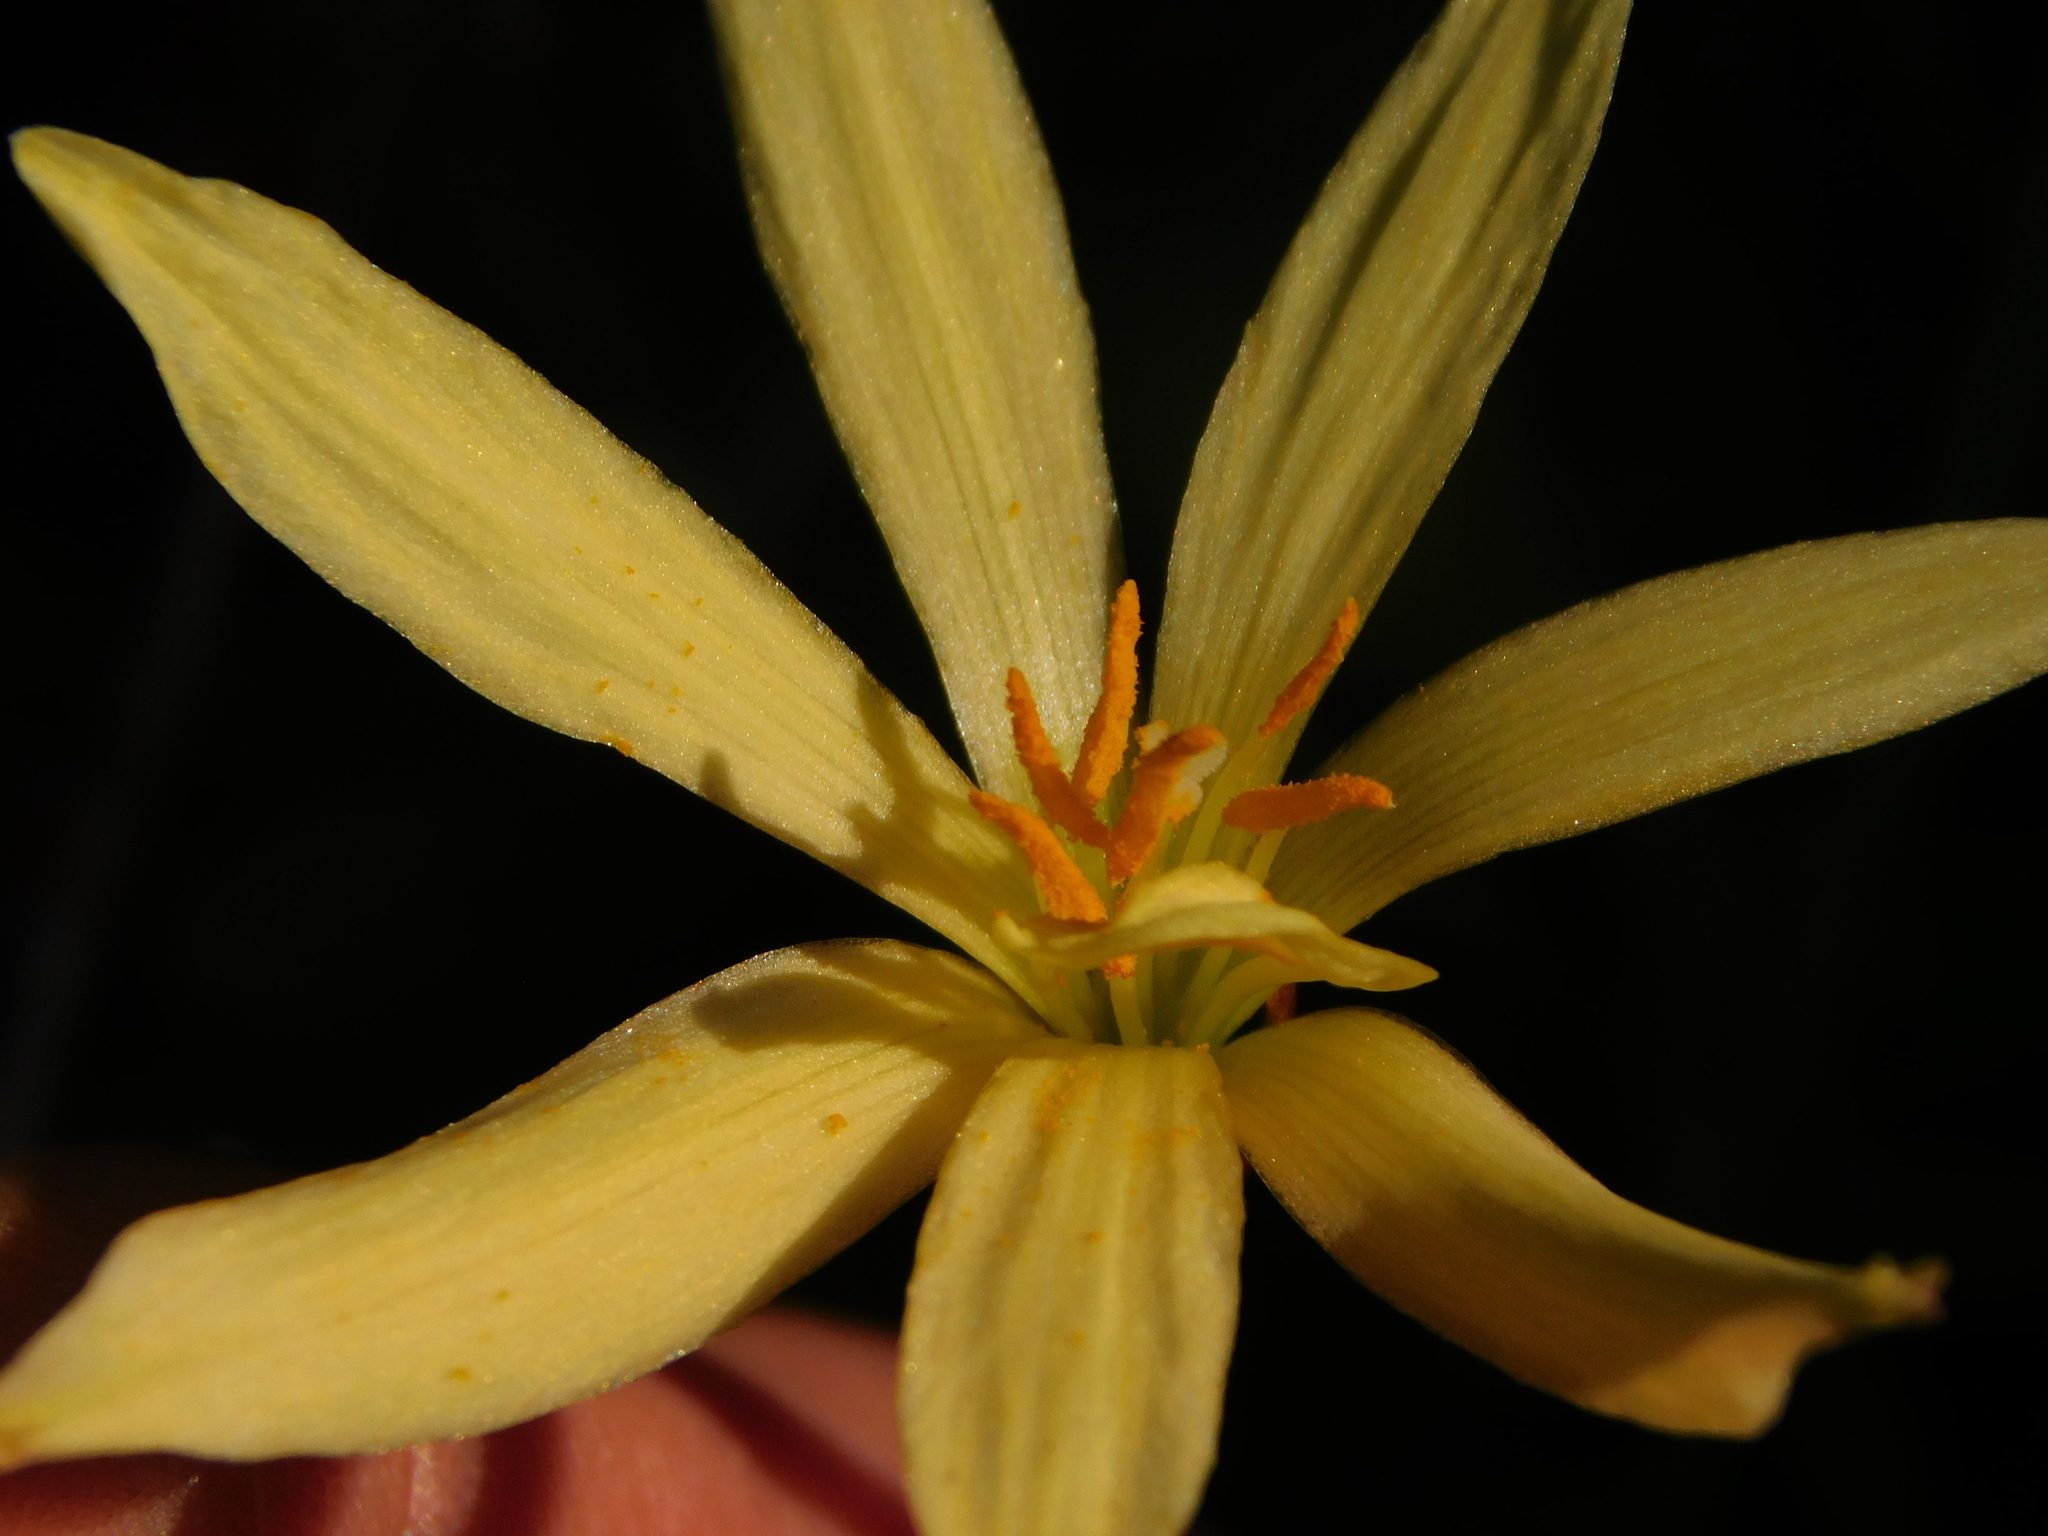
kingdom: Plantae
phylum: Tracheophyta
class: Liliopsida
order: Asparagales
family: Amaryllidaceae
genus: Zephyranthes
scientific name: Zephyranthes orellanae
